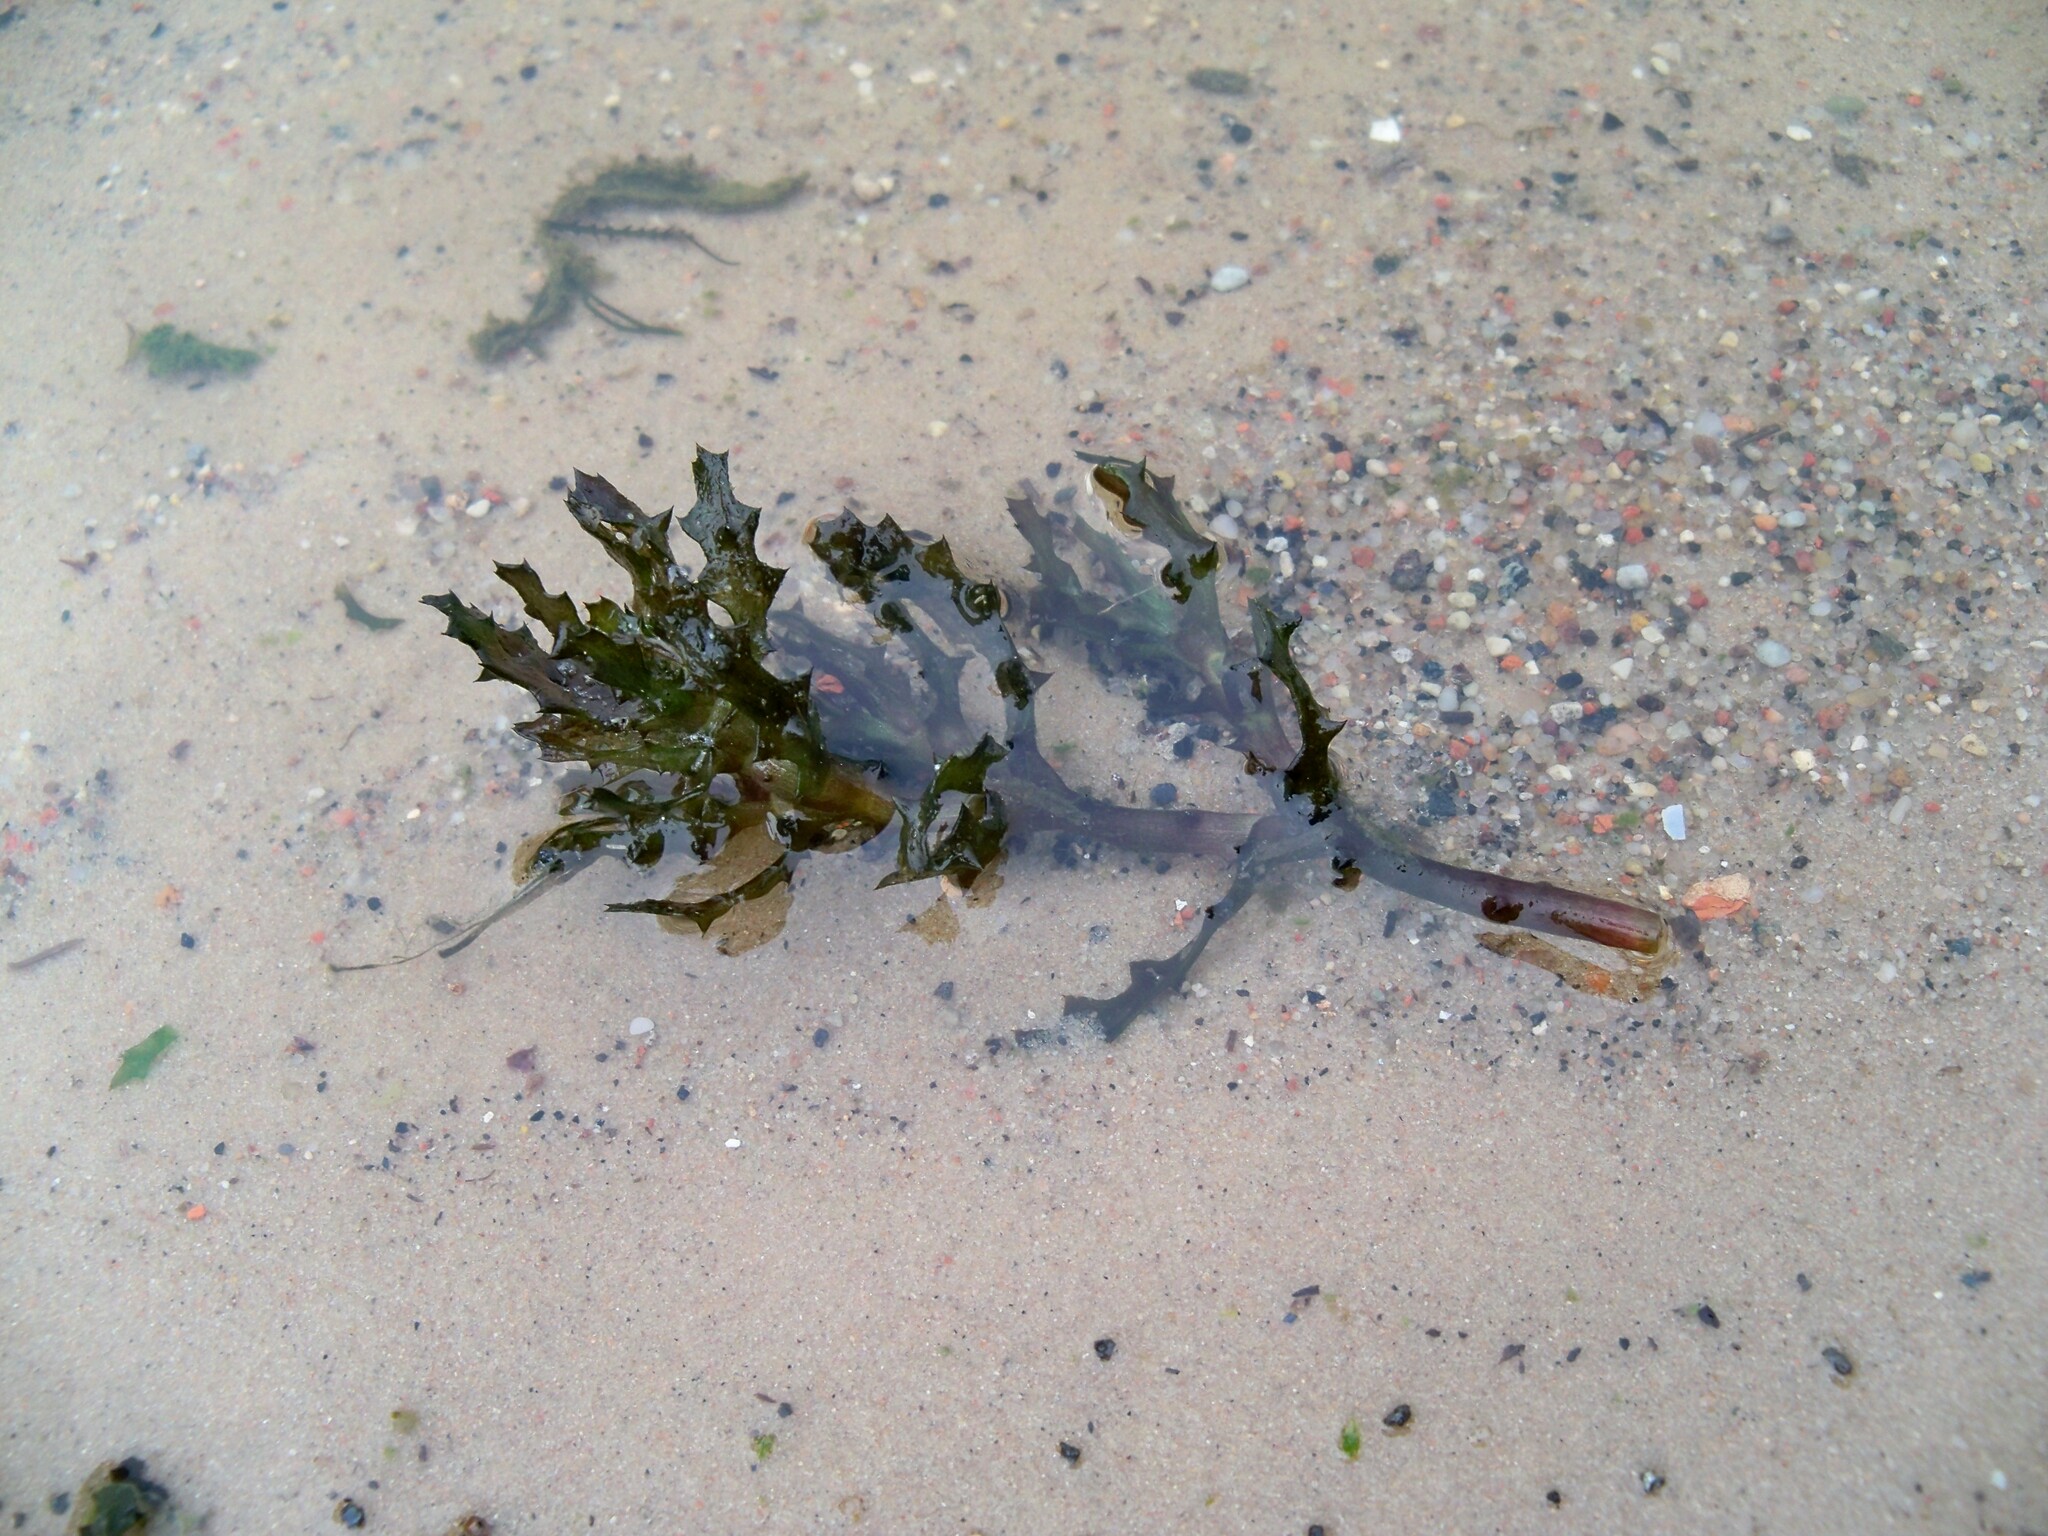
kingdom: Plantae
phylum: Tracheophyta
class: Liliopsida
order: Alismatales
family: Hydrocharitaceae
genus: Najas
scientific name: Najas marina
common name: Holly-leaved naiad
